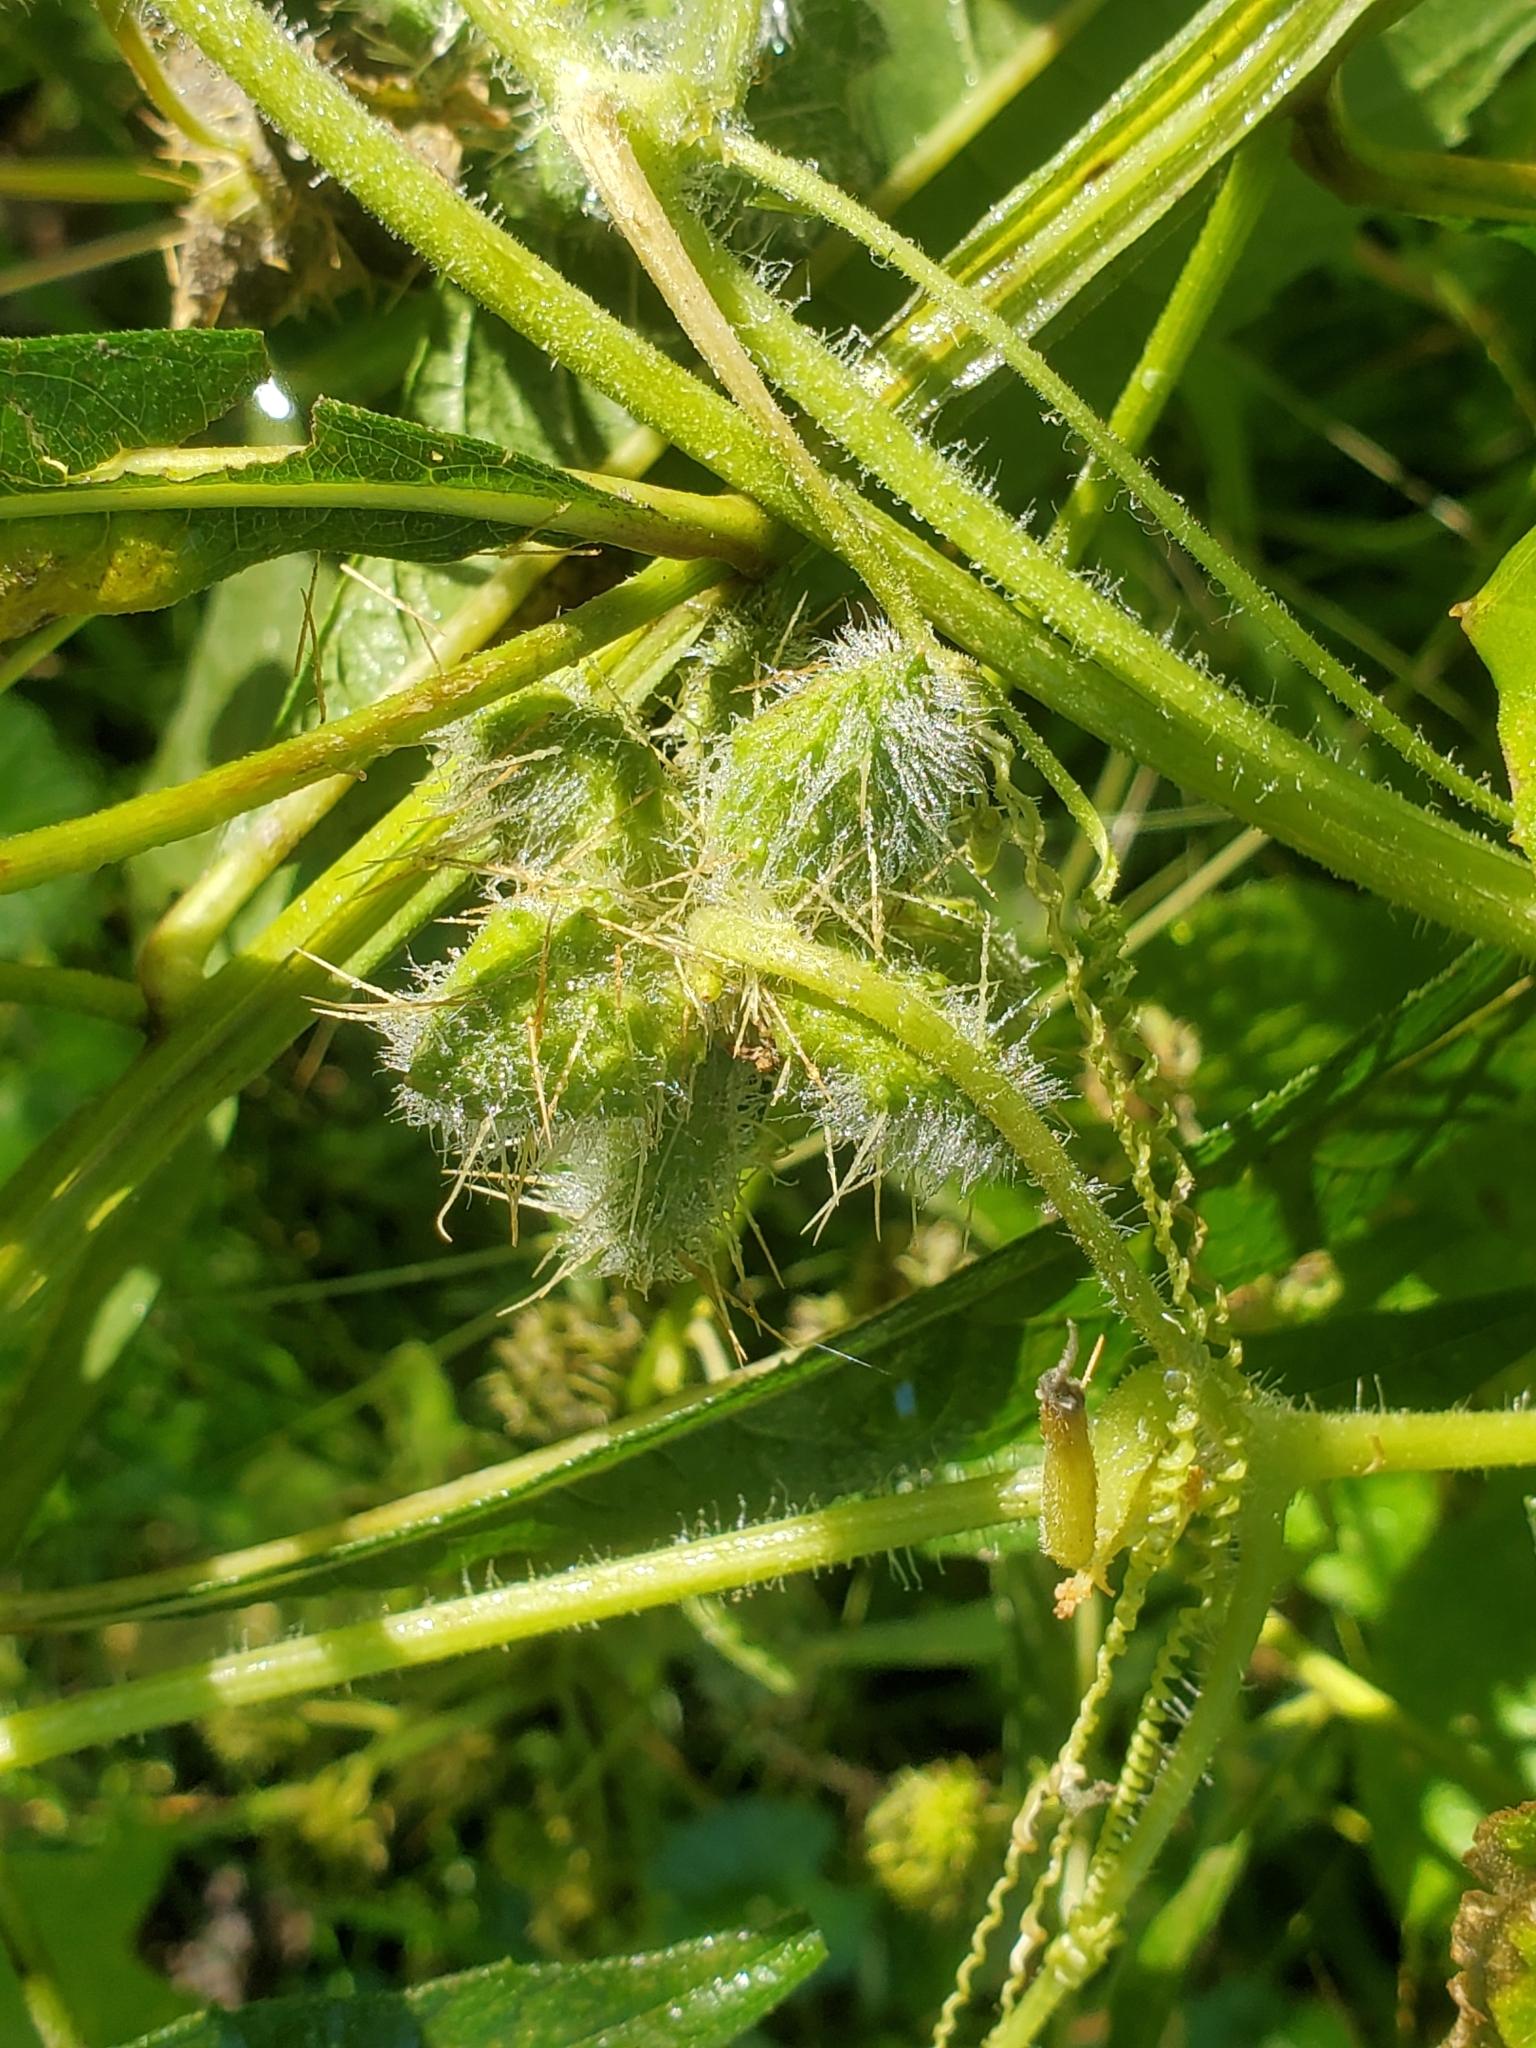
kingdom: Plantae
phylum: Tracheophyta
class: Magnoliopsida
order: Cucurbitales
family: Cucurbitaceae
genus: Sicyos
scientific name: Sicyos angulatus
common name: Angled burr cucumber
